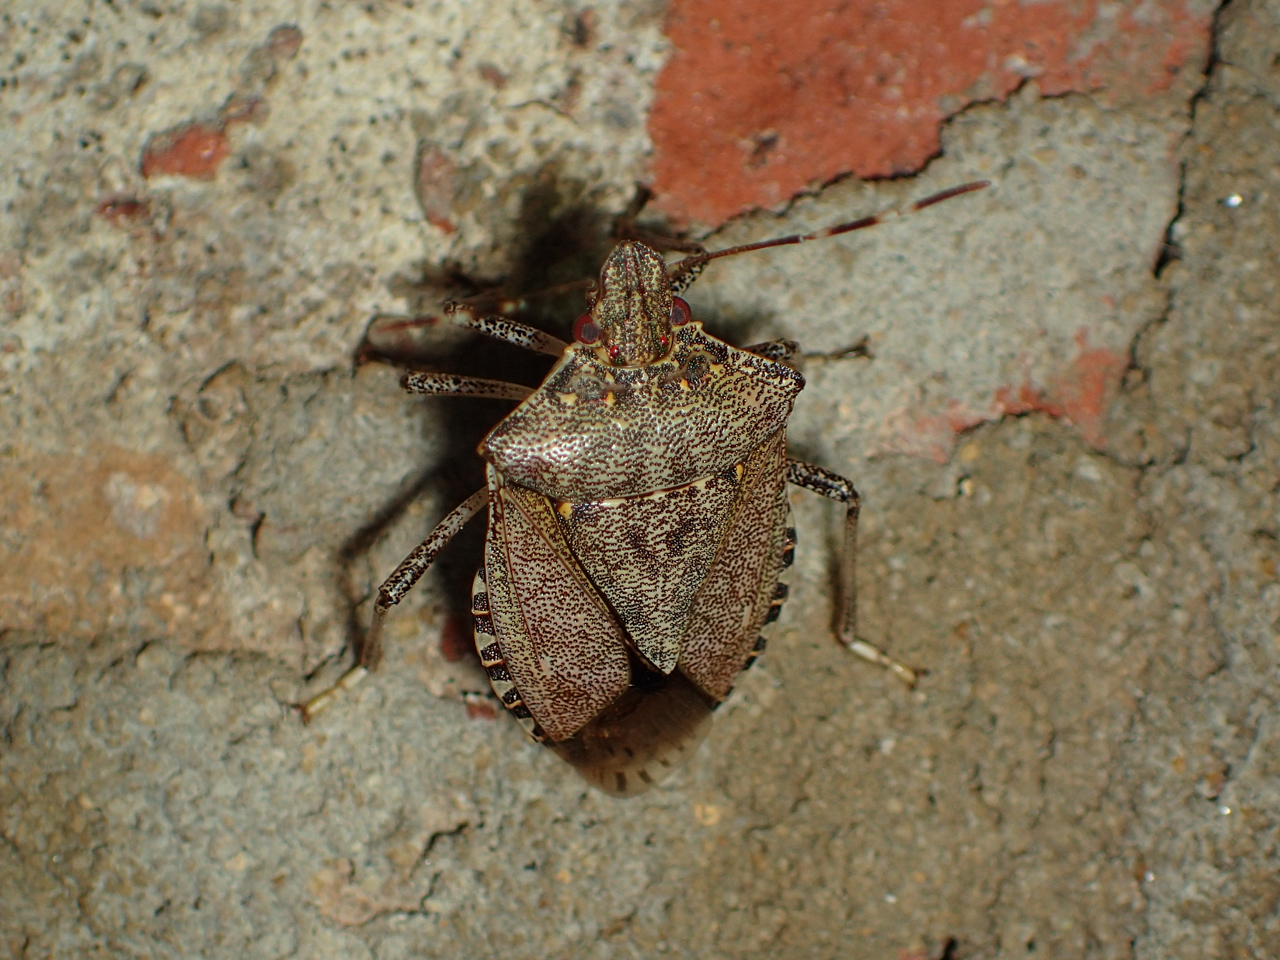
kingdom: Animalia
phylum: Arthropoda
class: Insecta
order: Hemiptera
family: Pentatomidae
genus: Halyomorpha
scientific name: Halyomorpha halys
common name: Brown marmorated stink bug
